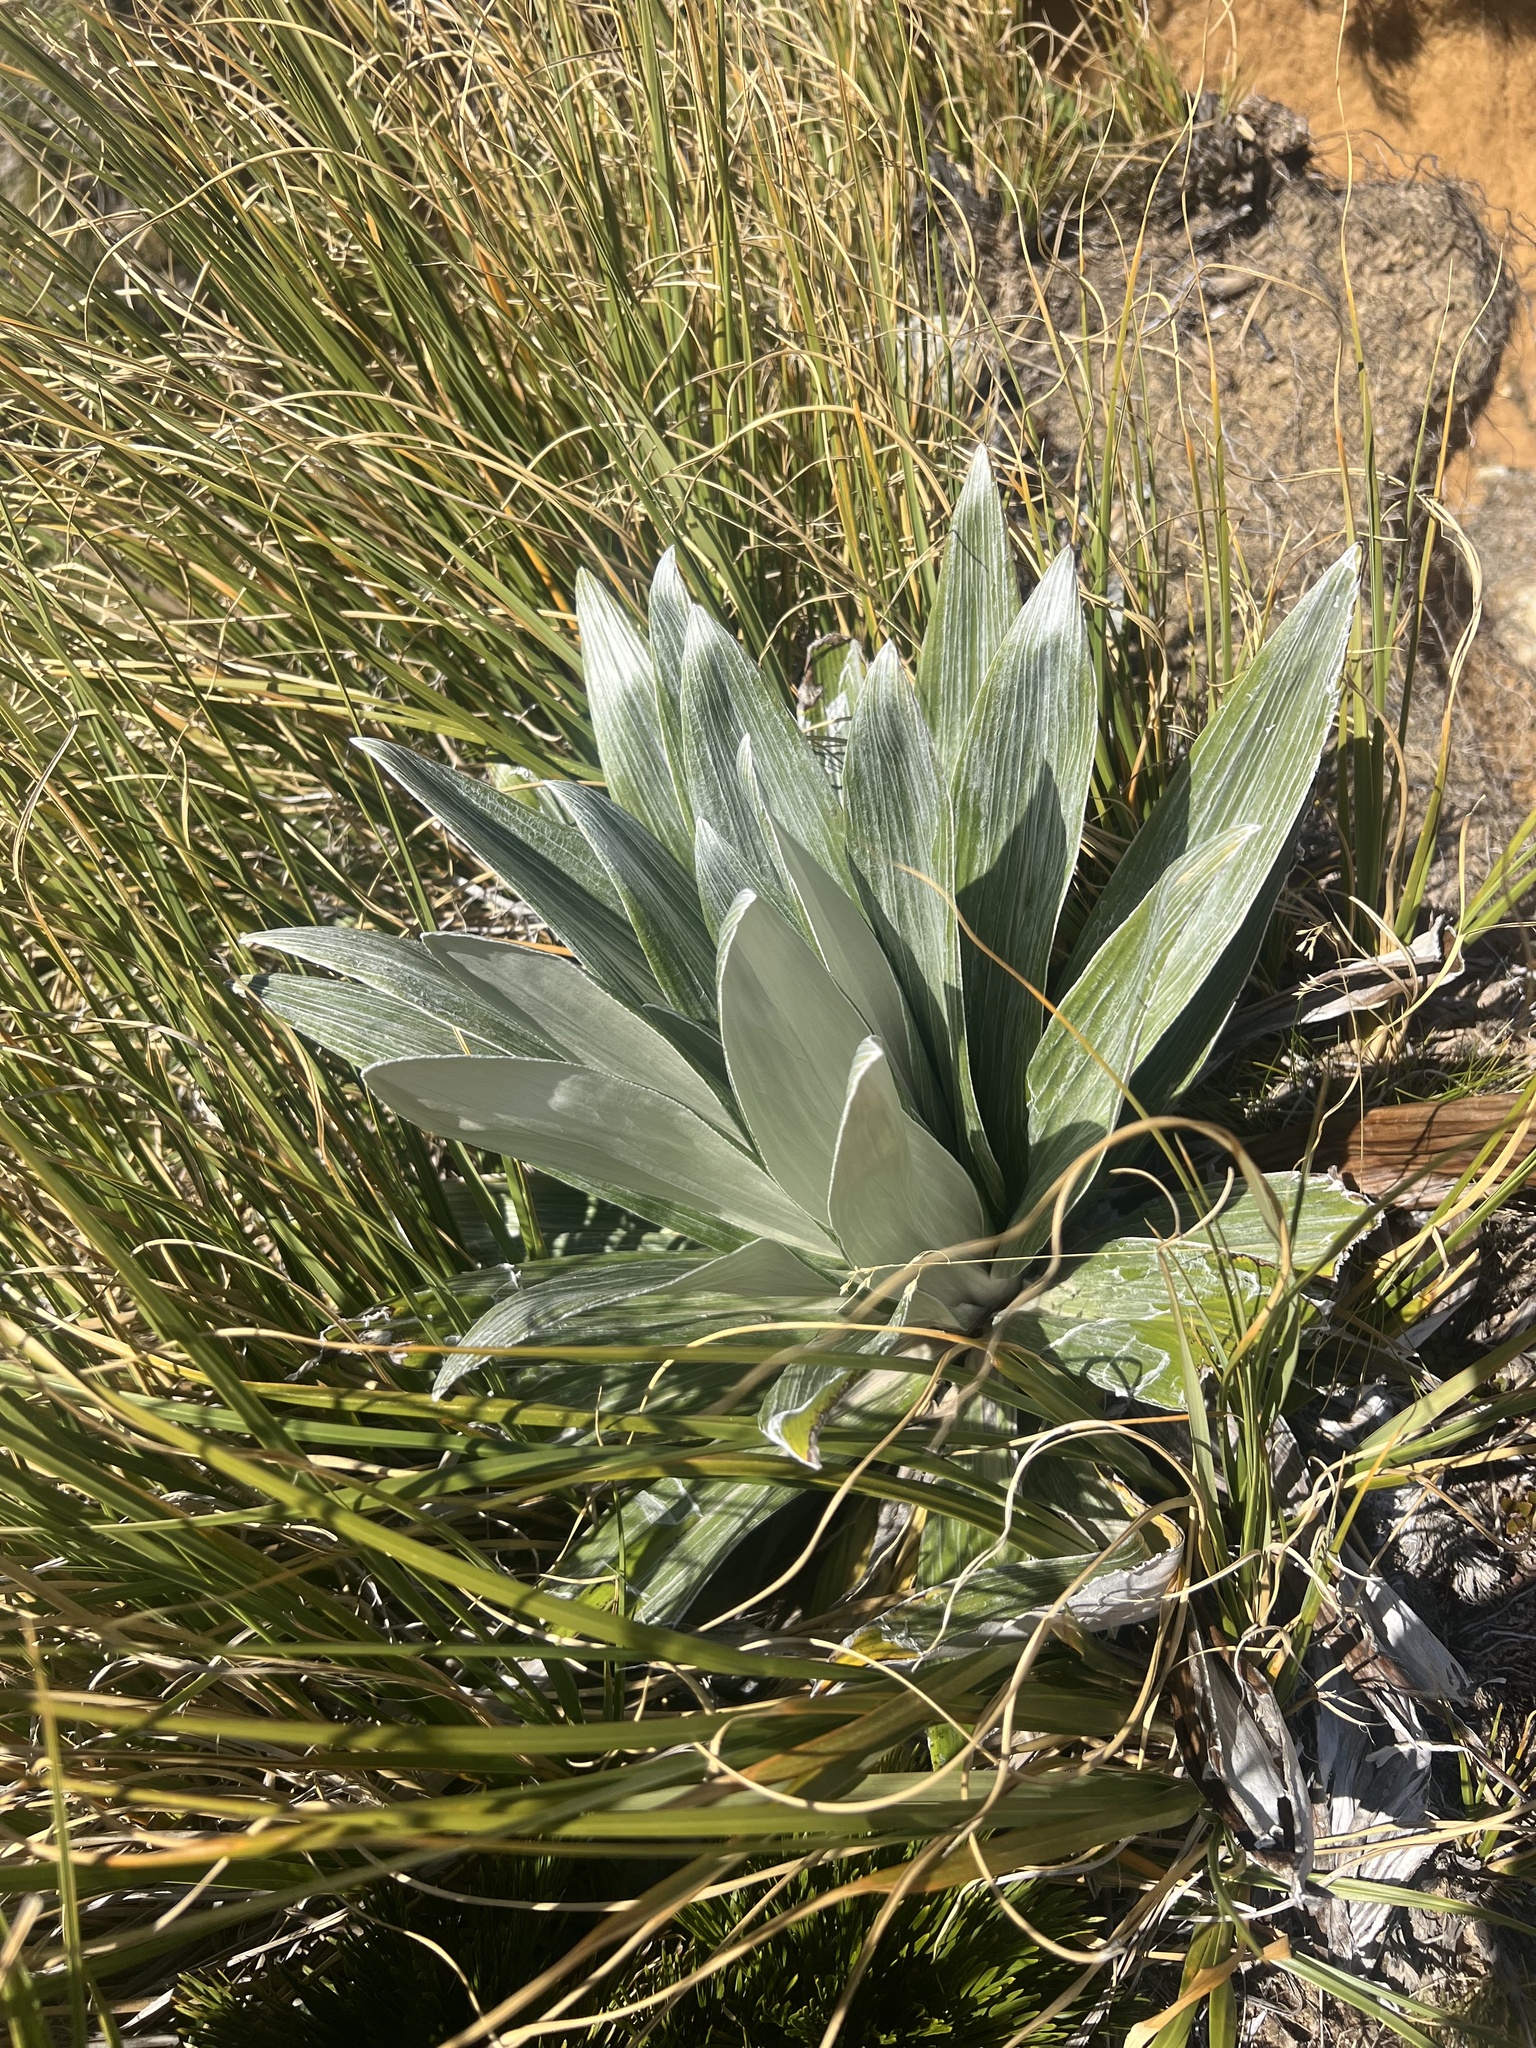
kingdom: Plantae
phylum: Tracheophyta
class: Magnoliopsida
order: Asterales
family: Asteraceae
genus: Celmisia
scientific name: Celmisia semicordata
